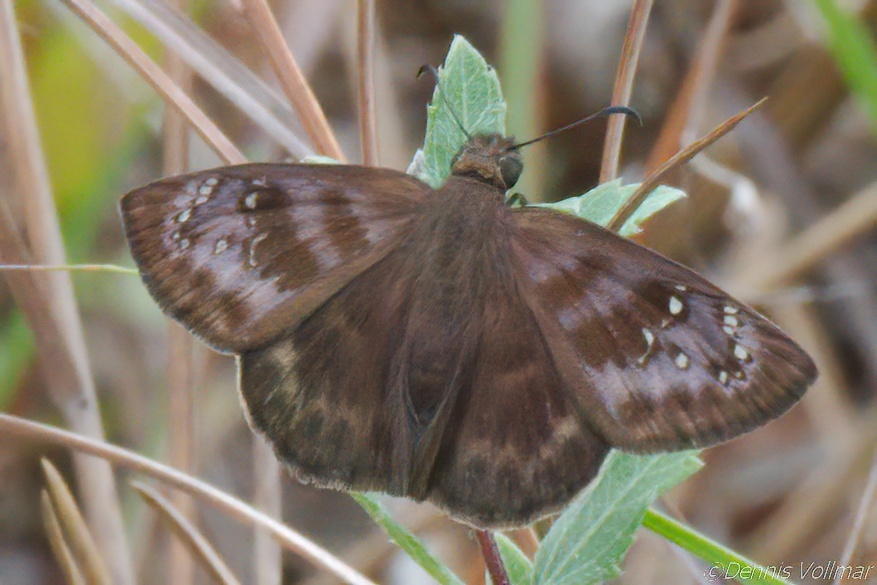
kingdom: Animalia
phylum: Arthropoda
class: Insecta
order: Lepidoptera
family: Hesperiidae
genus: Ephyriades
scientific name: Ephyriades brunnea
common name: Florida duskywing
